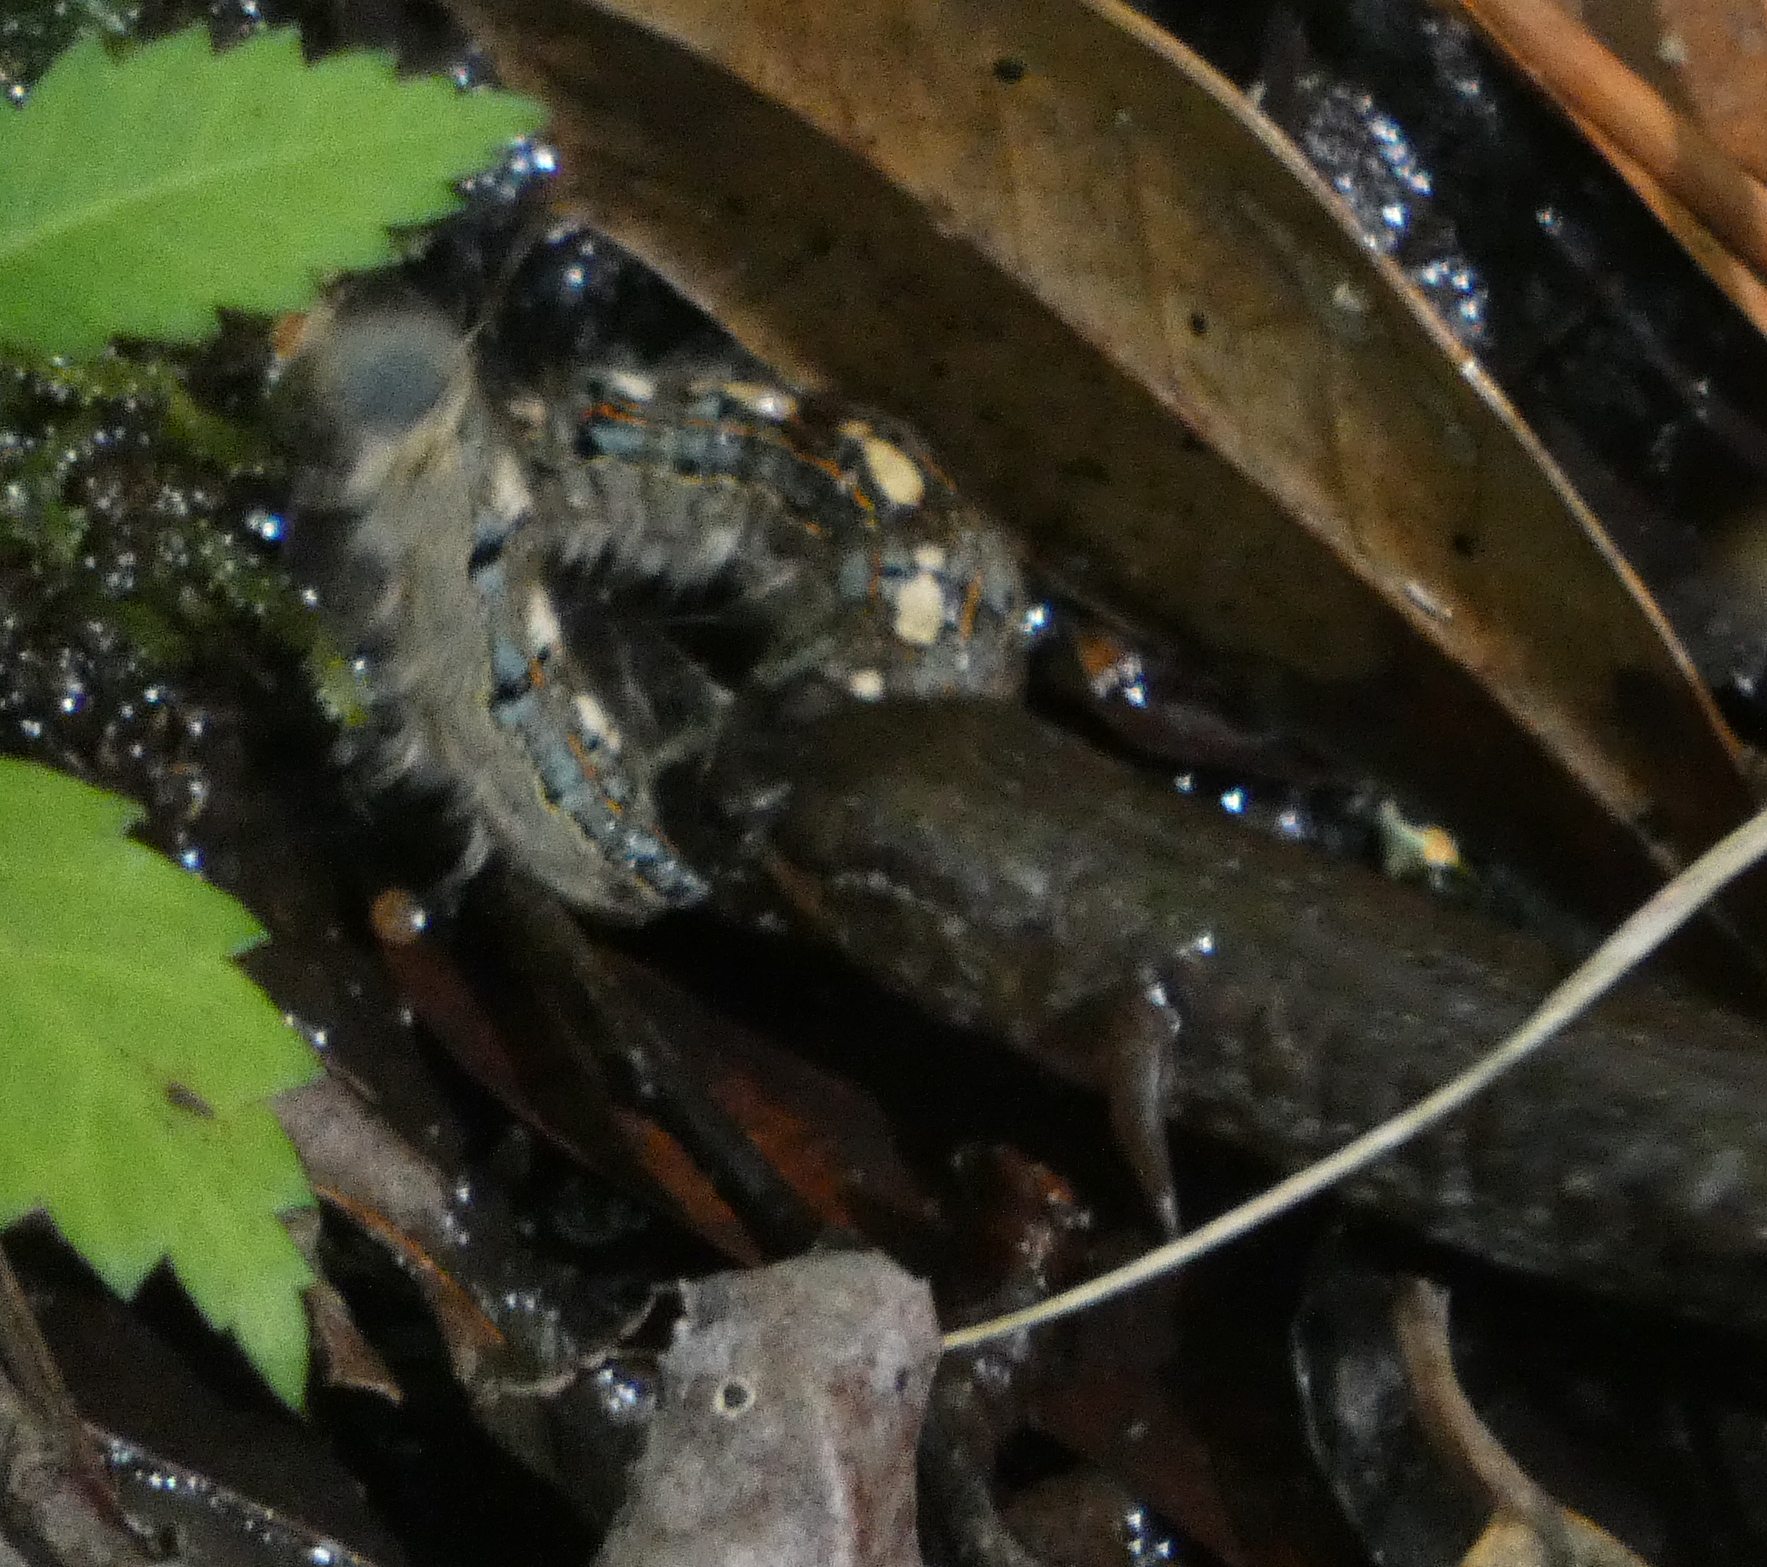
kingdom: Animalia
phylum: Arthropoda
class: Insecta
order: Lepidoptera
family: Lasiocampidae
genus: Malacosoma
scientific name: Malacosoma disstria
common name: Forest tent caterpillar
